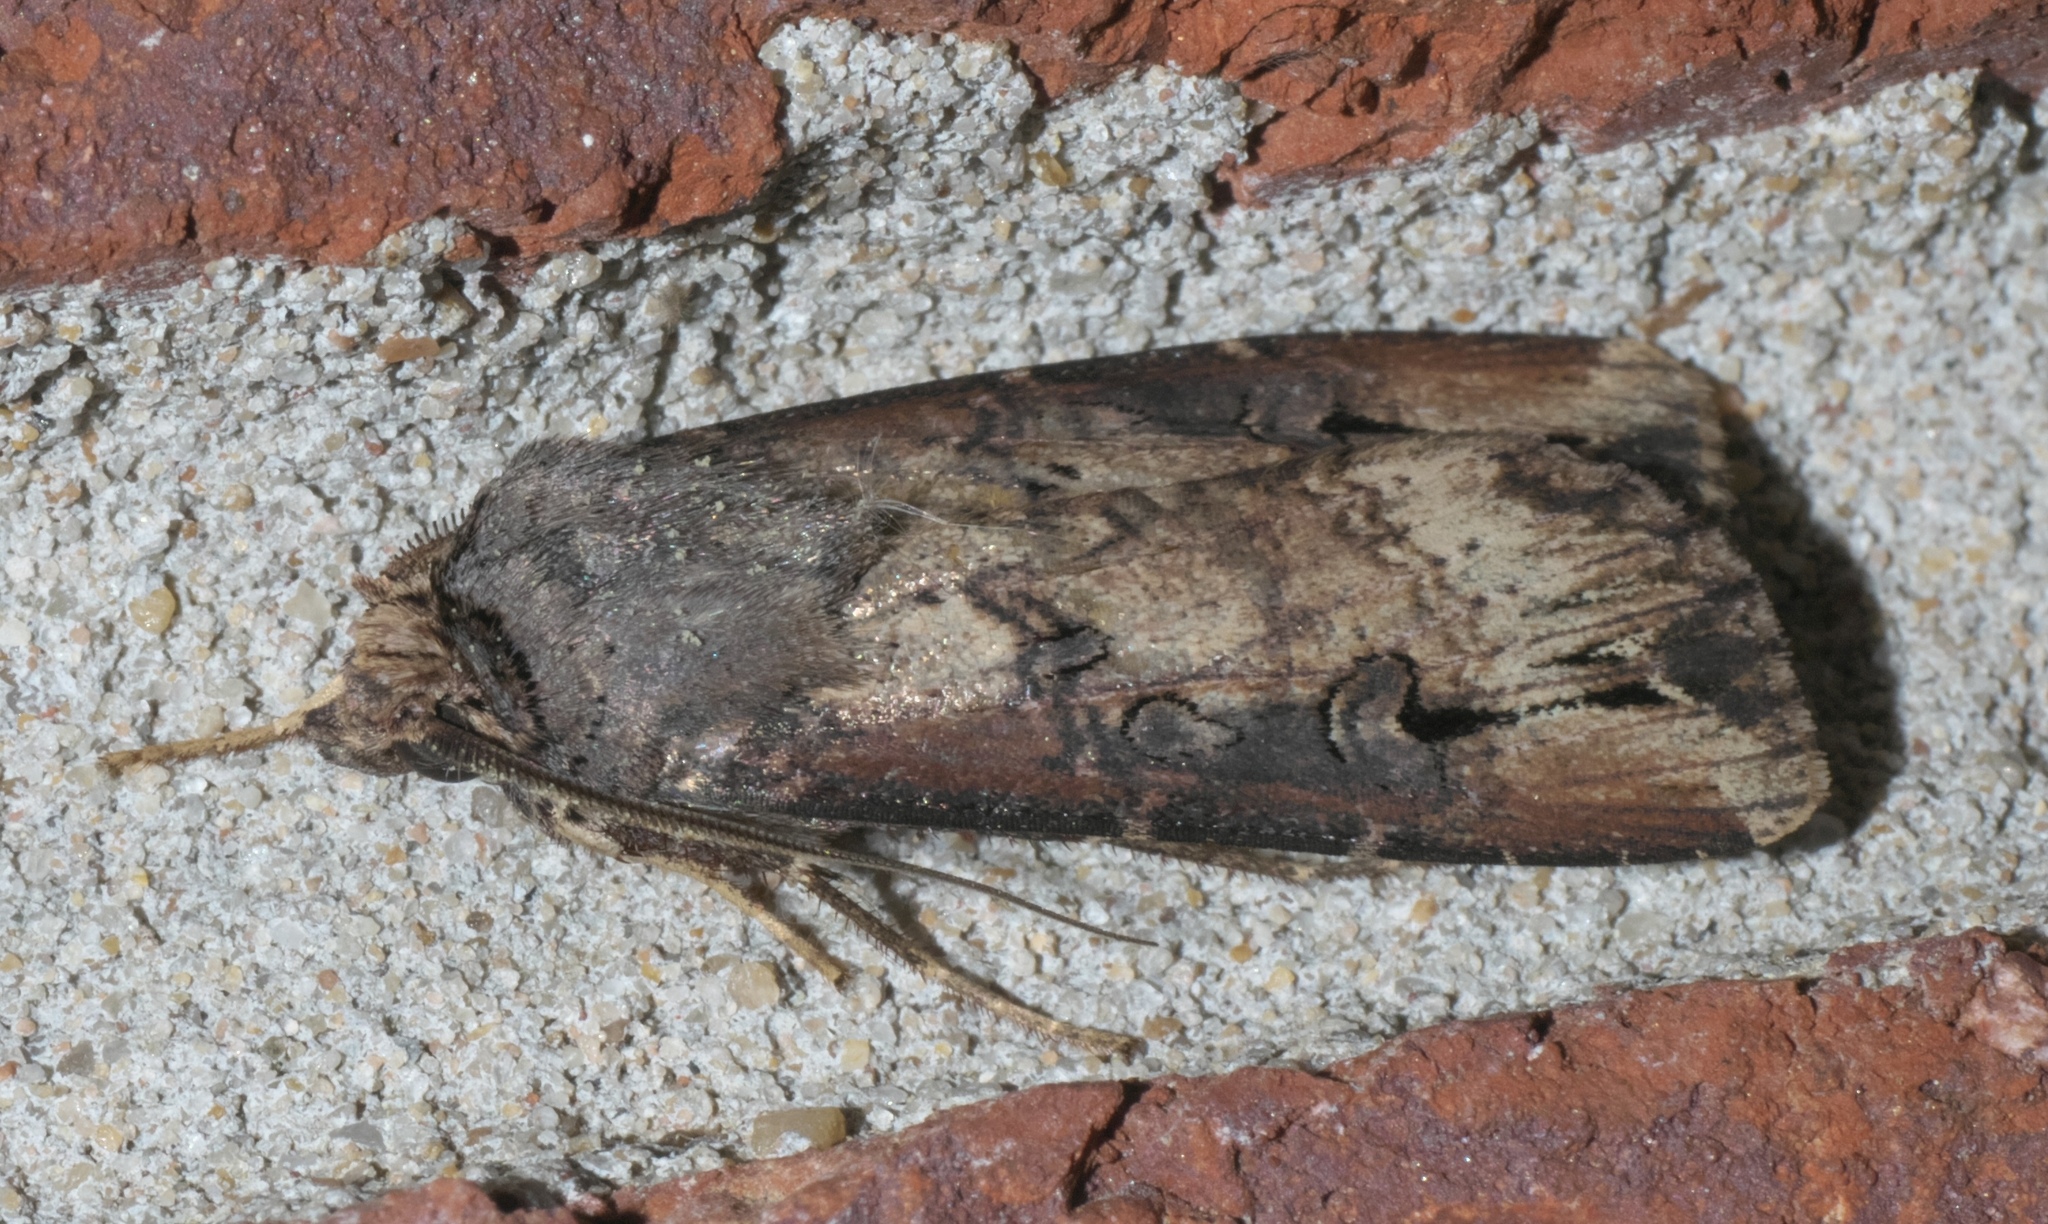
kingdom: Animalia
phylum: Arthropoda
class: Insecta
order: Lepidoptera
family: Noctuidae
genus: Agrotis
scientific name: Agrotis ipsilon
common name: Dark sword-grass
